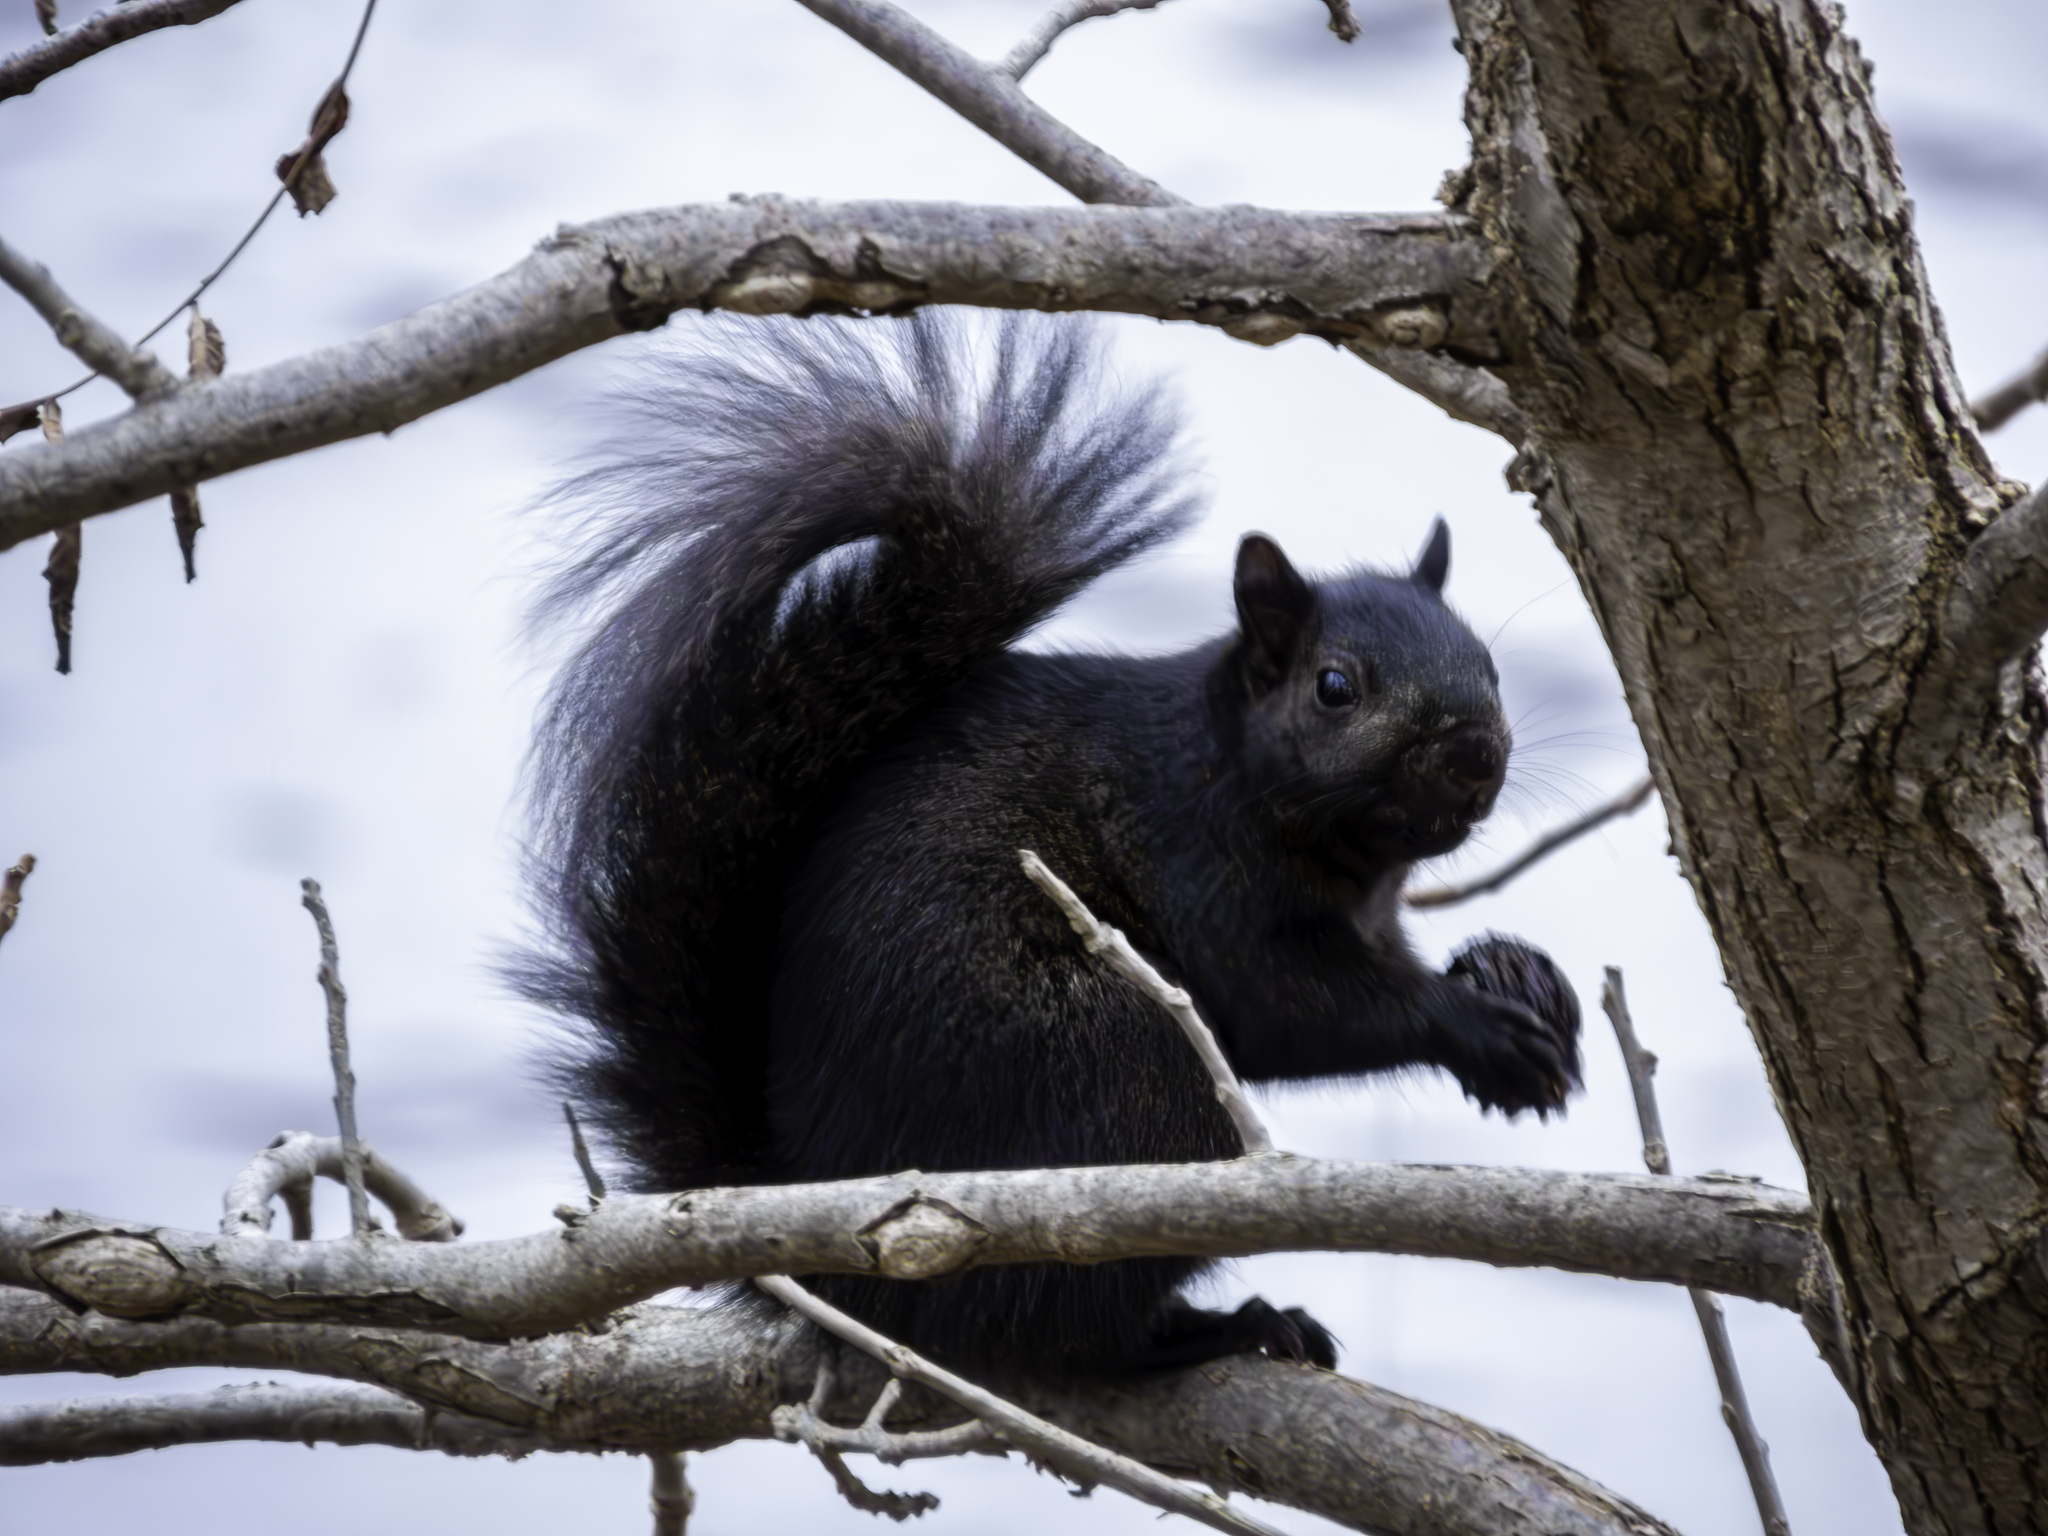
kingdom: Animalia
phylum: Chordata
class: Mammalia
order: Rodentia
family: Sciuridae
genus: Sciurus
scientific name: Sciurus carolinensis
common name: Eastern gray squirrel
